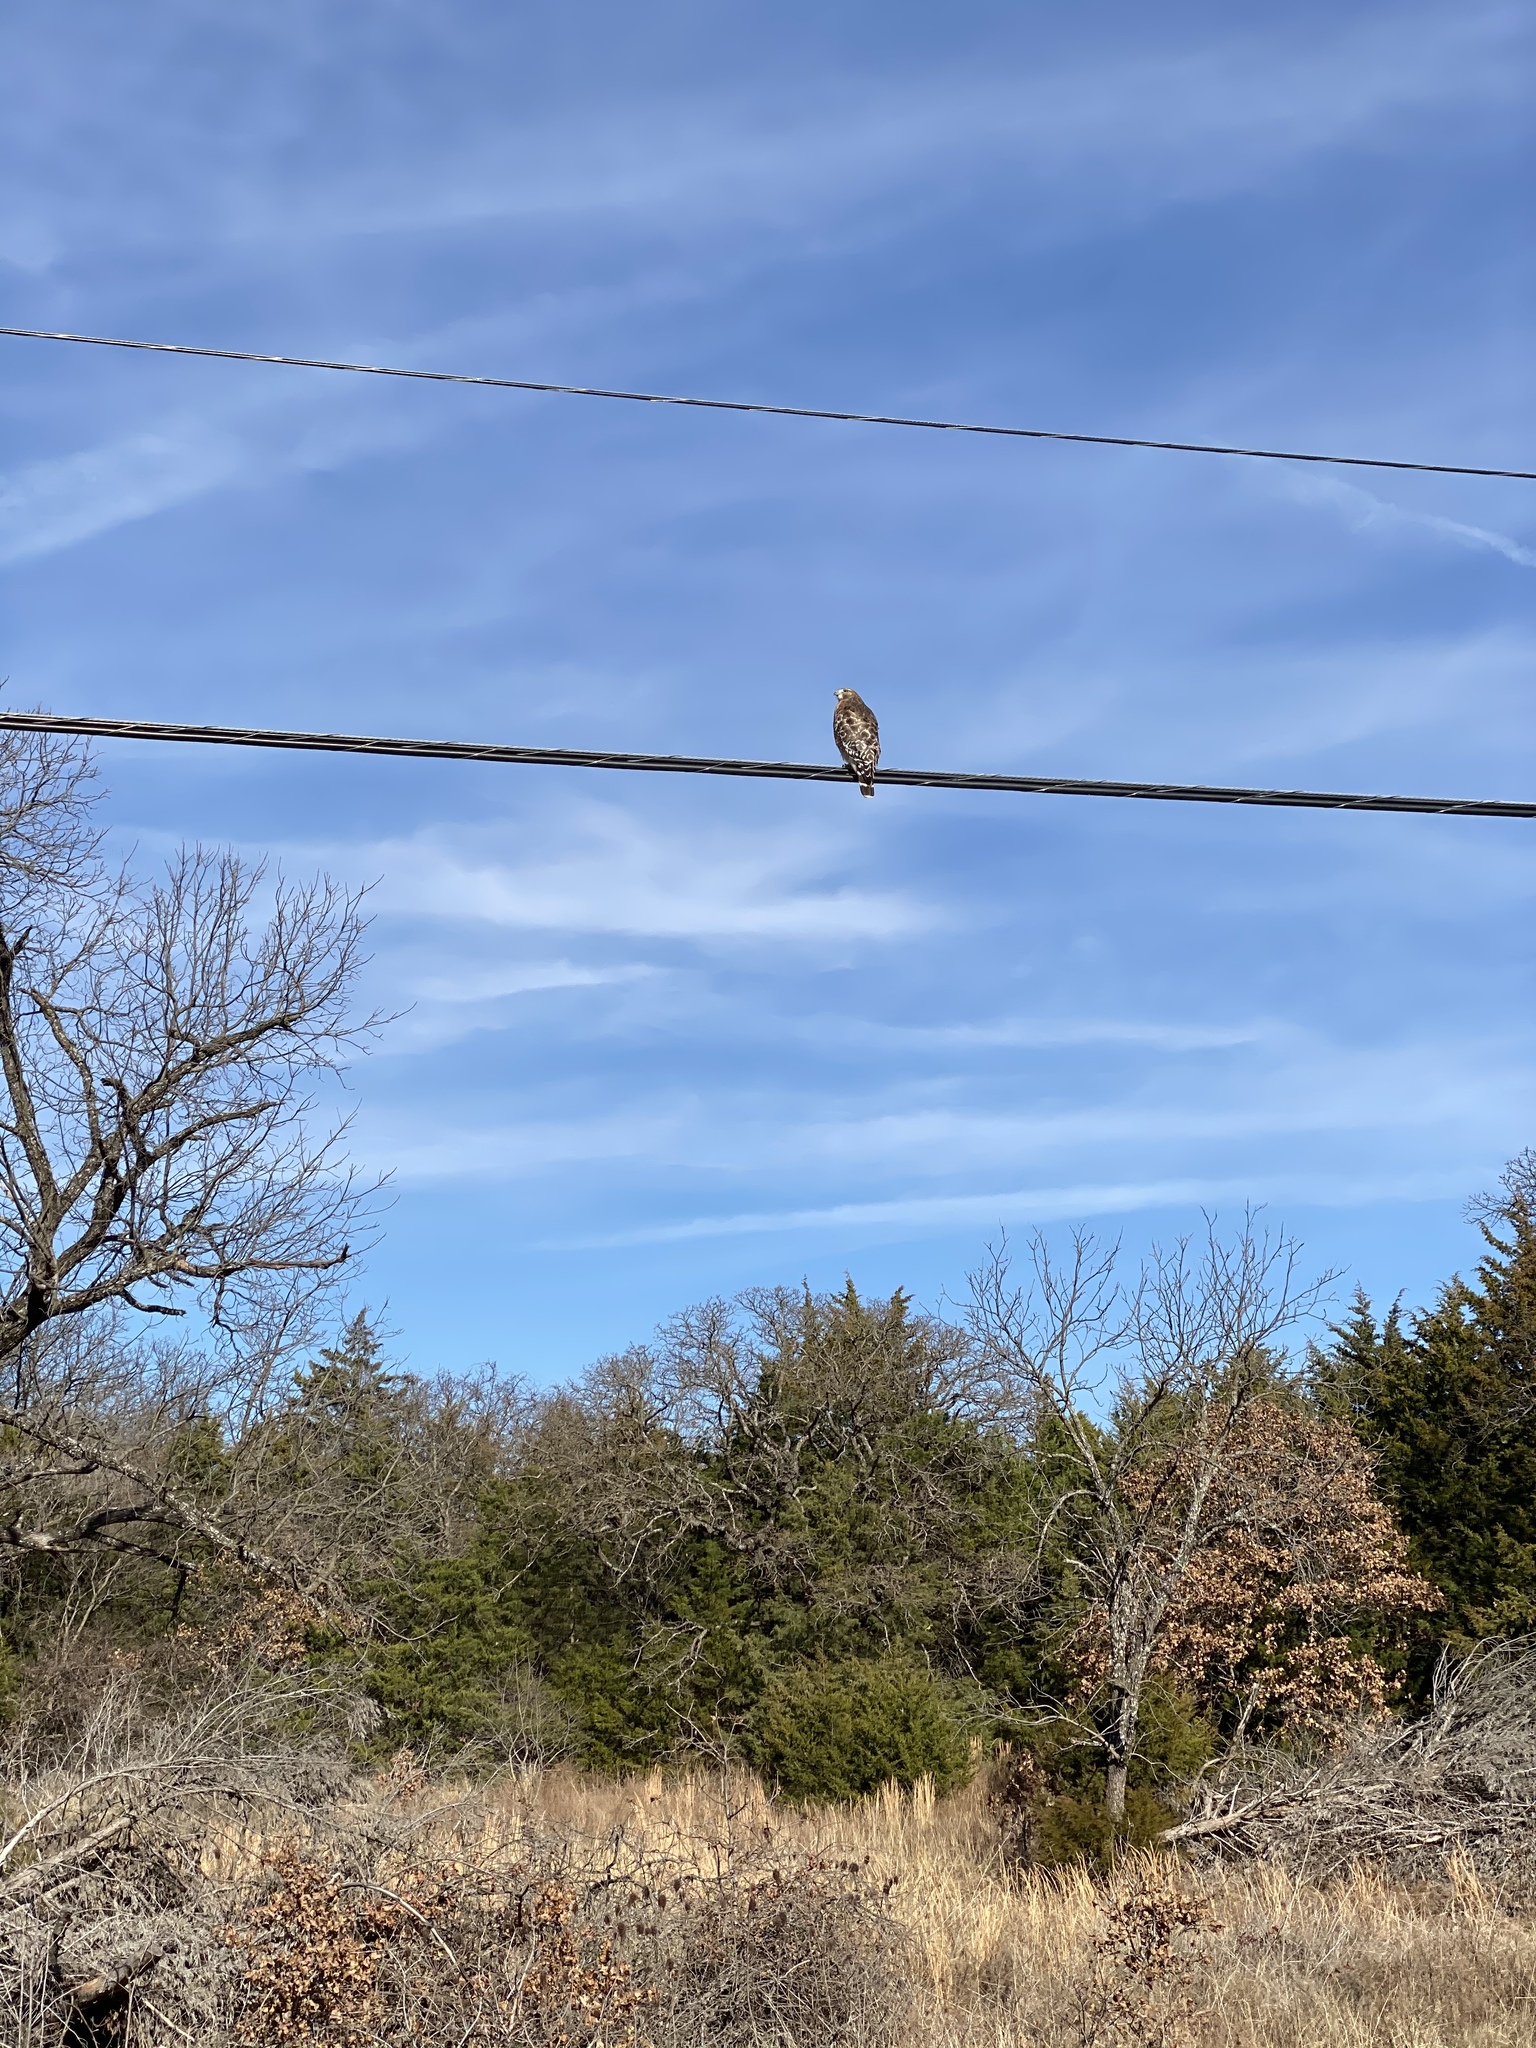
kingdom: Animalia
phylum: Chordata
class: Aves
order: Accipitriformes
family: Accipitridae
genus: Buteo
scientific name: Buteo lineatus
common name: Red-shouldered hawk
